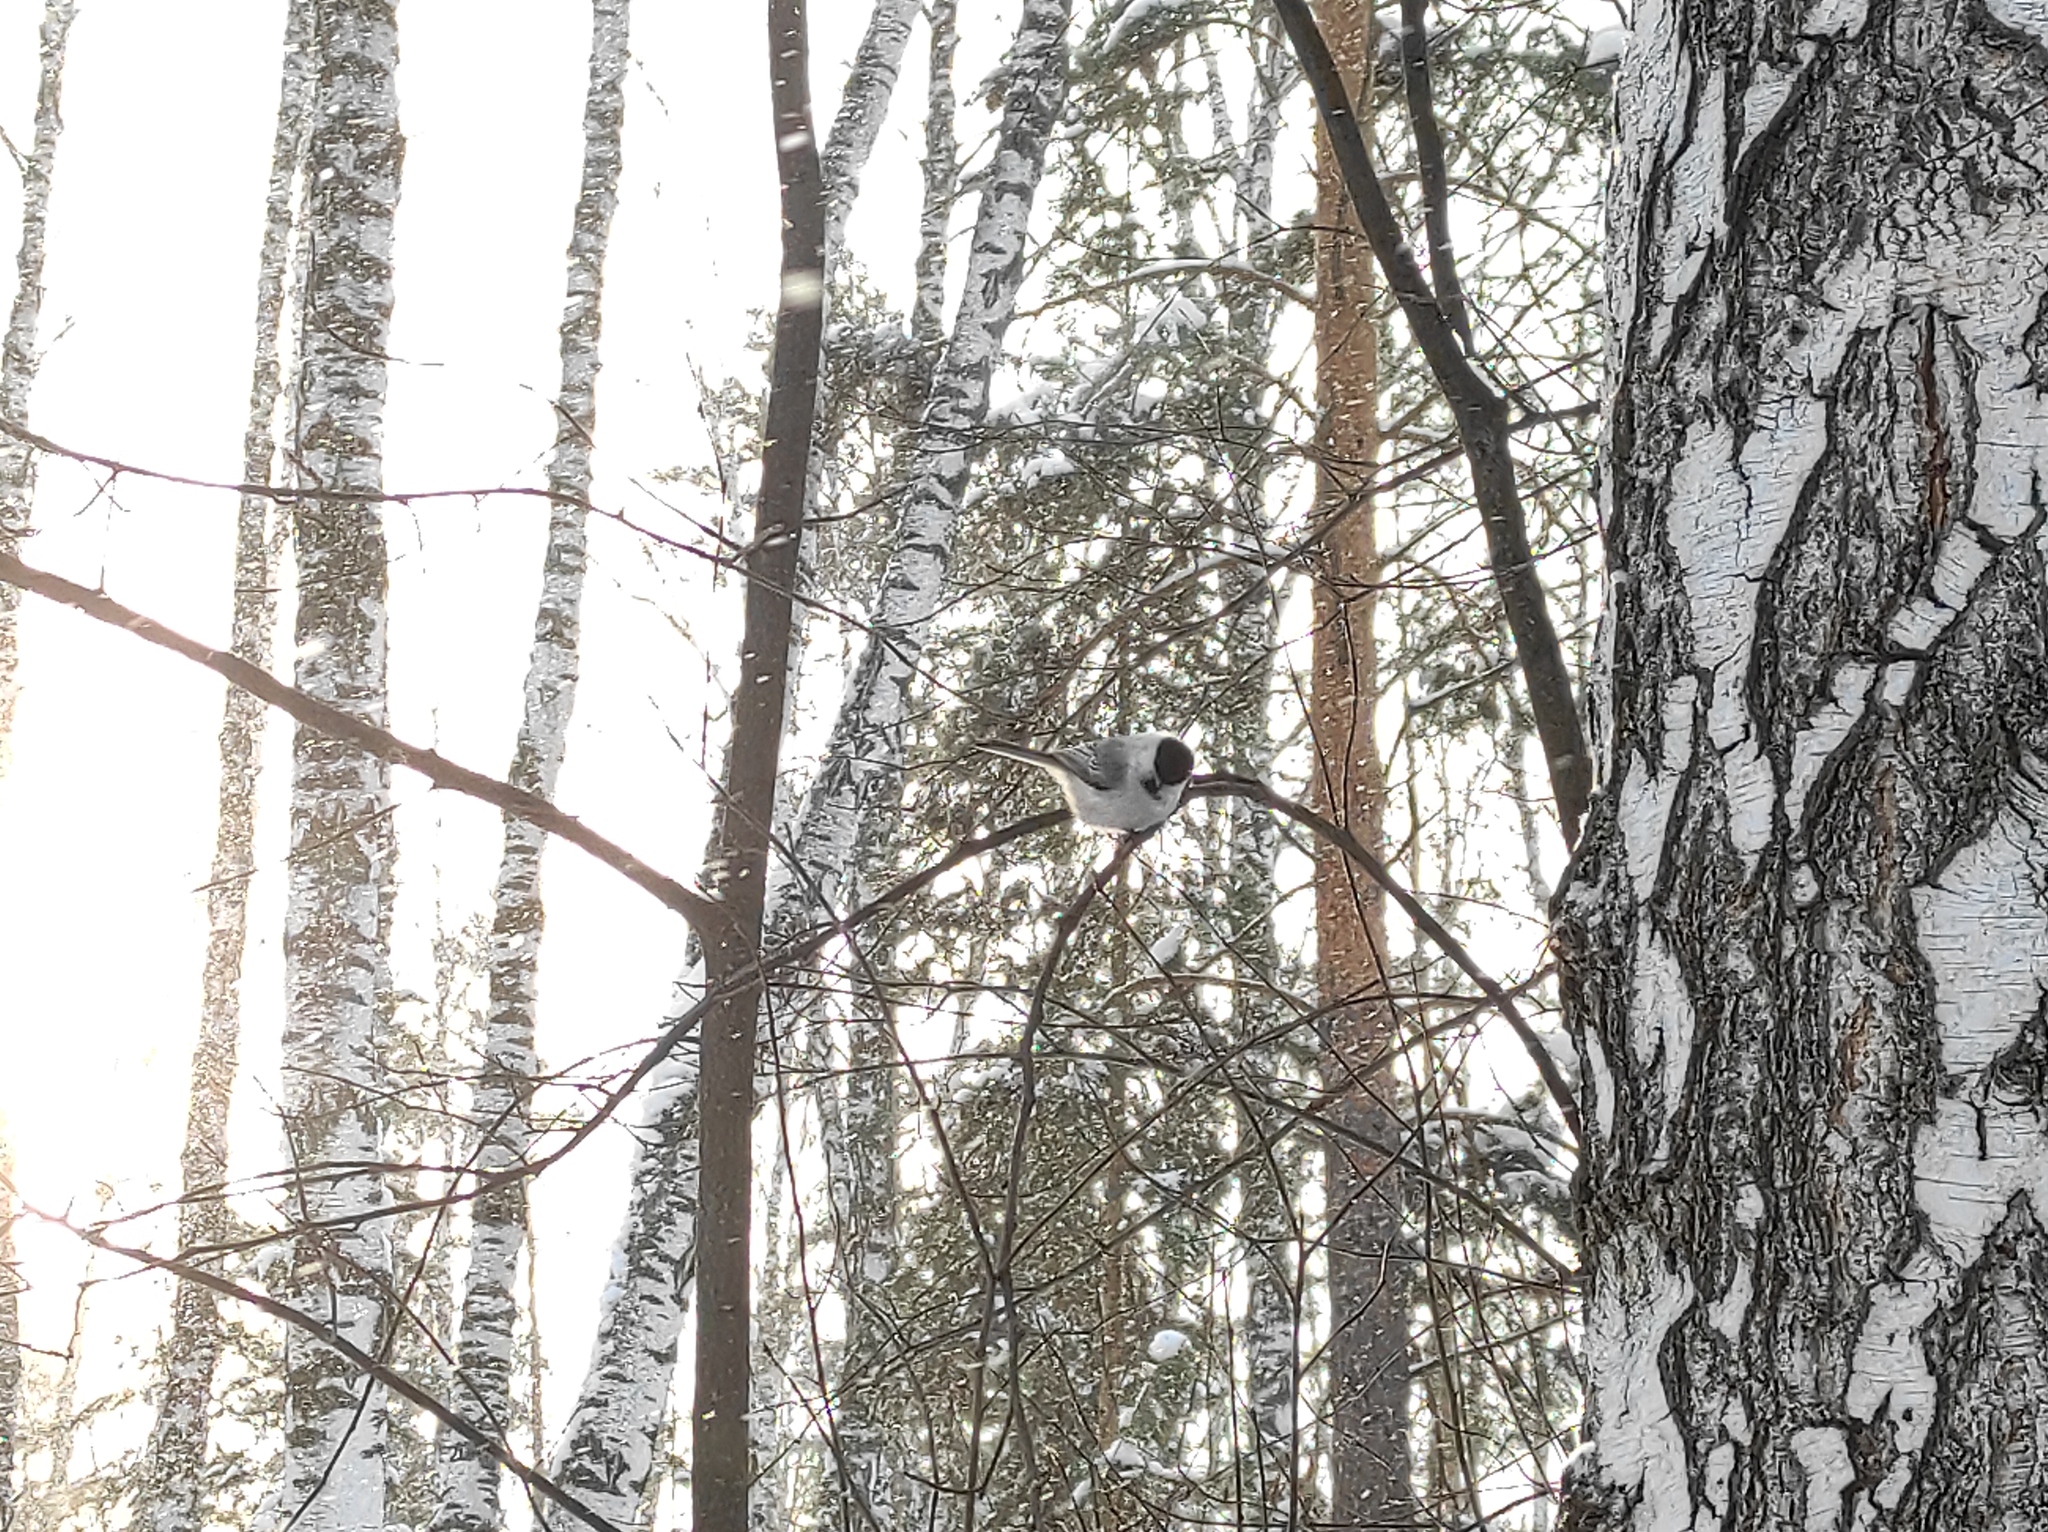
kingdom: Animalia
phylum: Chordata
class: Aves
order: Passeriformes
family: Paridae
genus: Poecile
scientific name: Poecile montanus
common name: Willow tit
